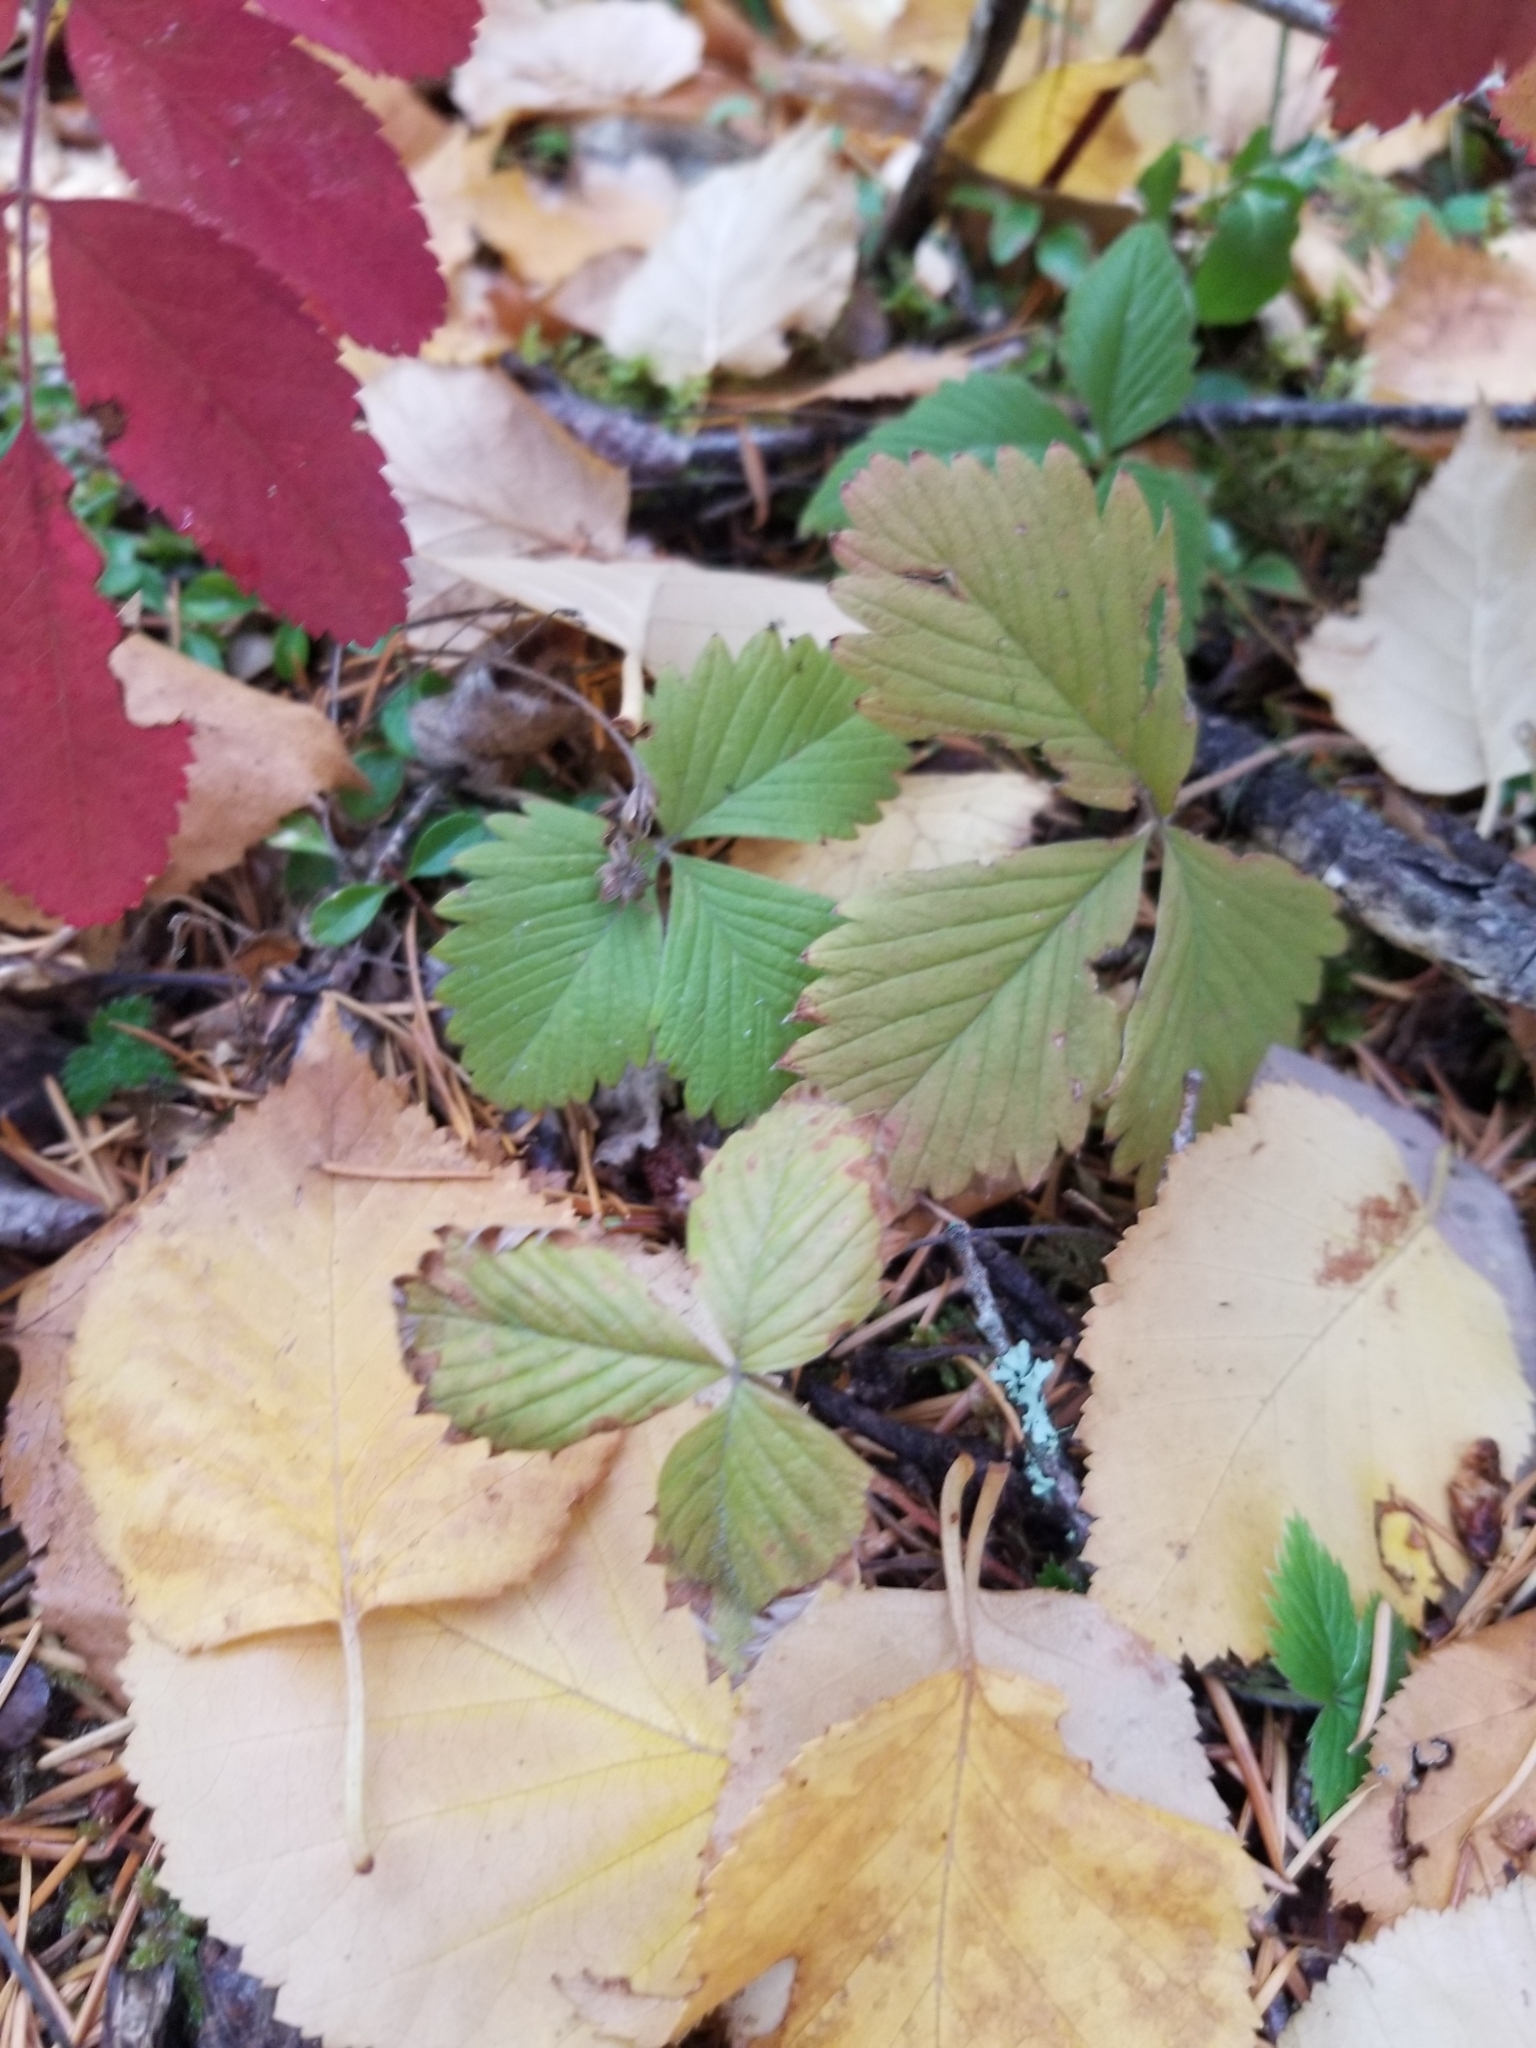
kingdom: Plantae
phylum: Tracheophyta
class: Magnoliopsida
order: Rosales
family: Rosaceae
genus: Fragaria
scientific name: Fragaria vesca
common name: Wild strawberry
